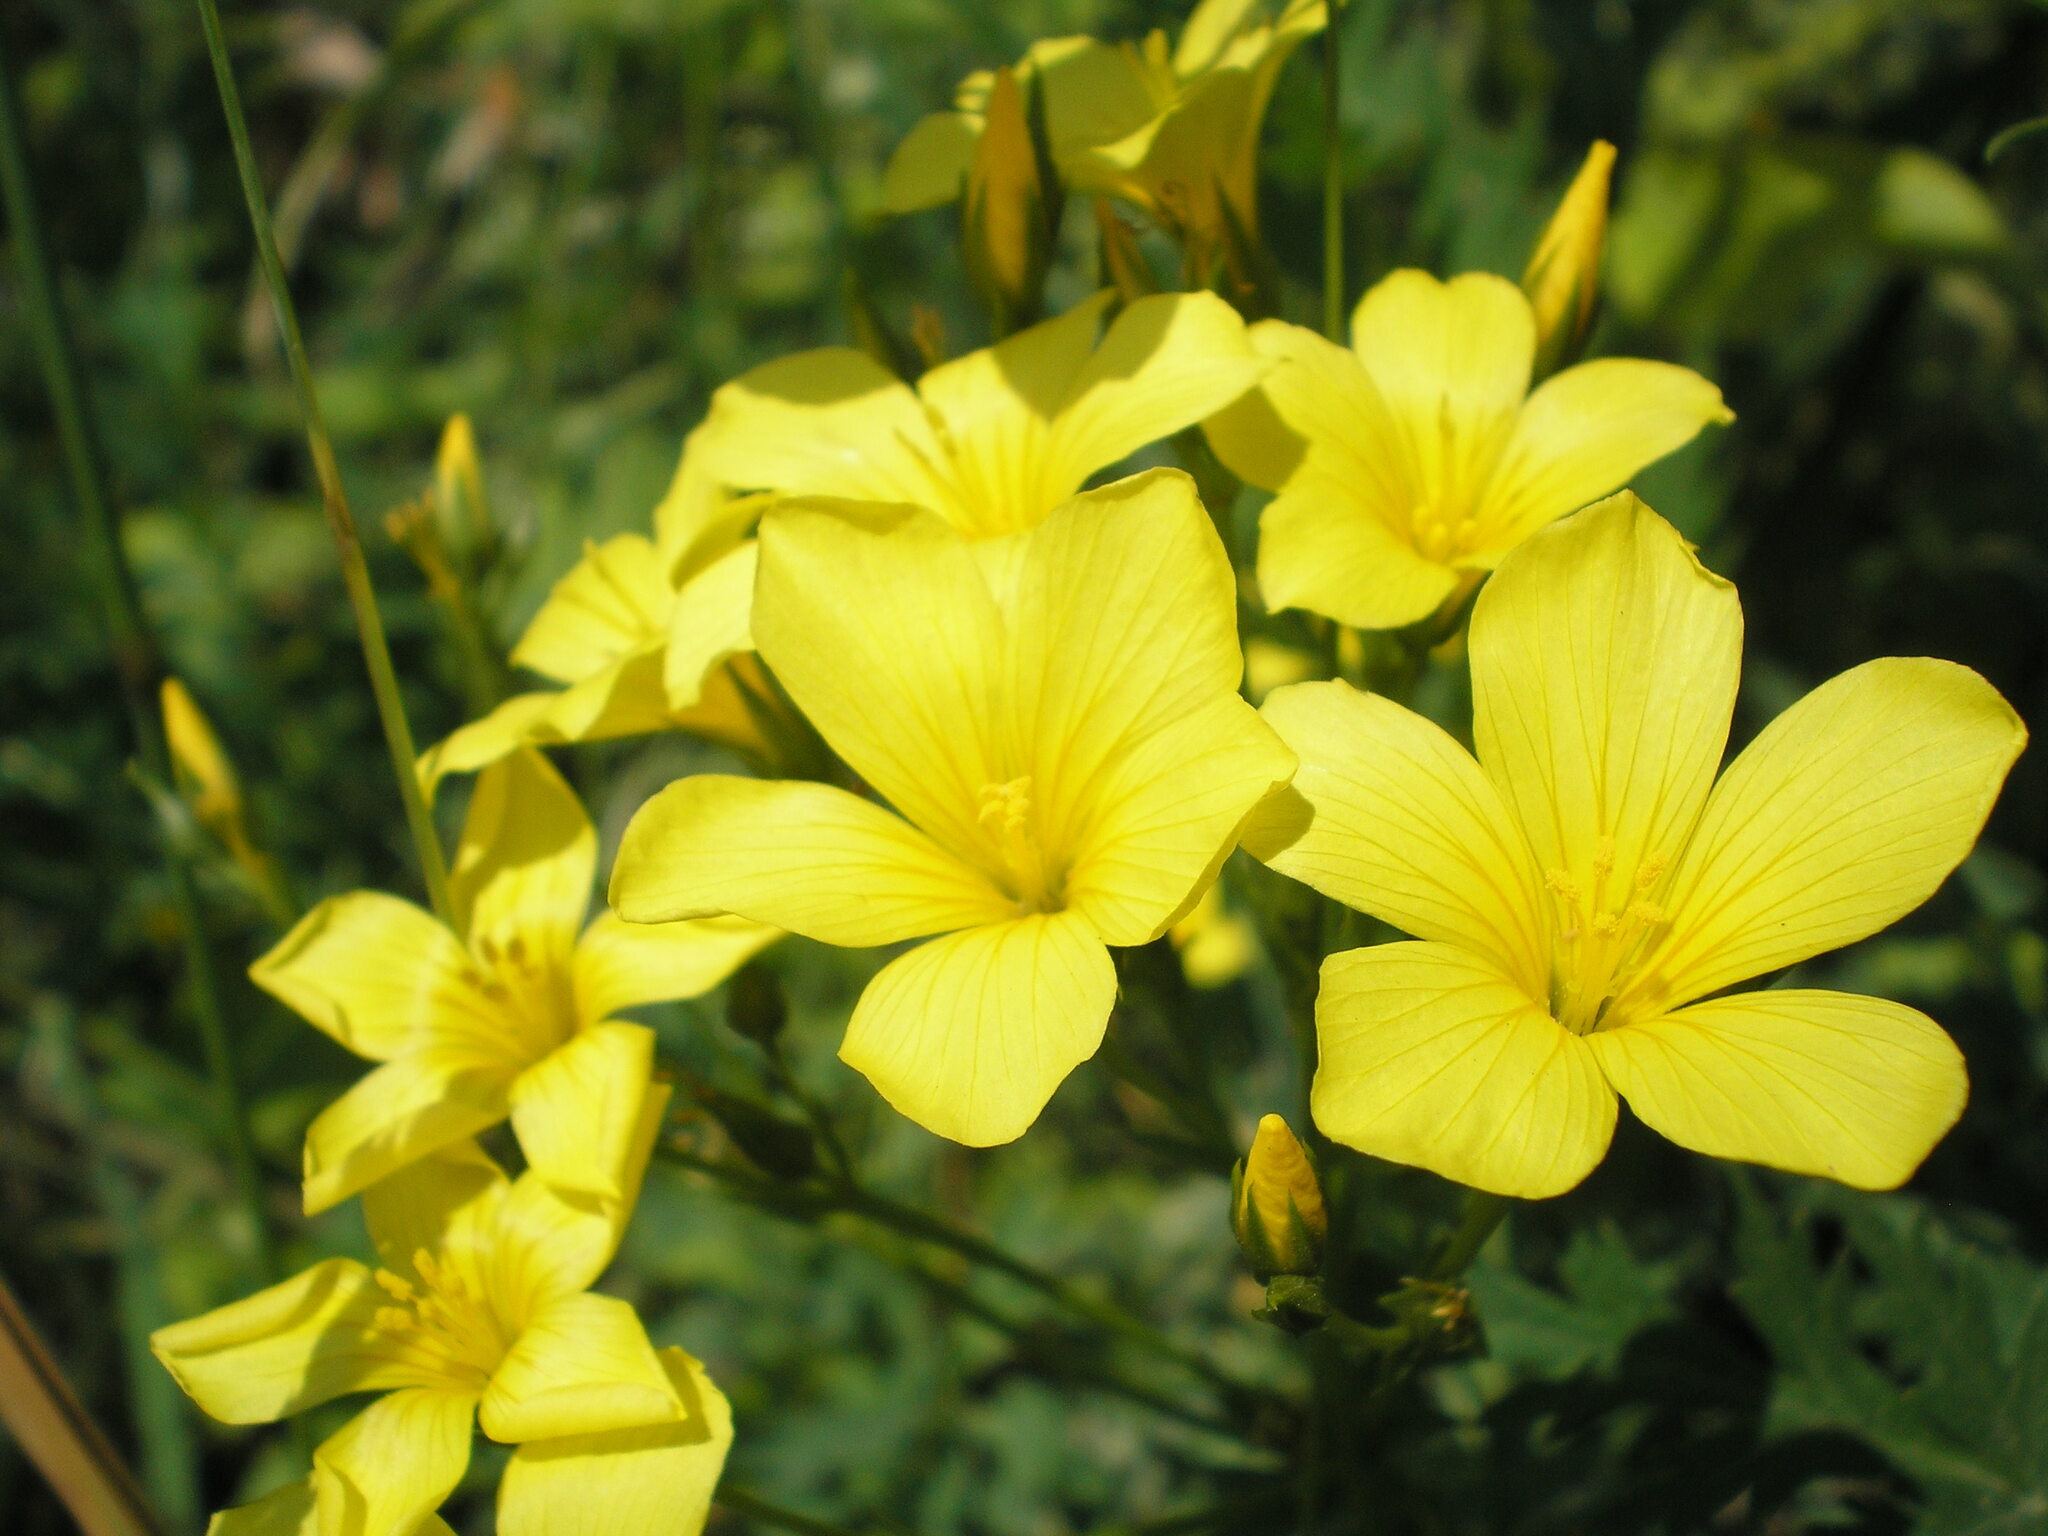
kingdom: Plantae
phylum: Tracheophyta
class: Magnoliopsida
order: Malpighiales
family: Linaceae
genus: Linum
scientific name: Linum flavum
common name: Yellow flax
